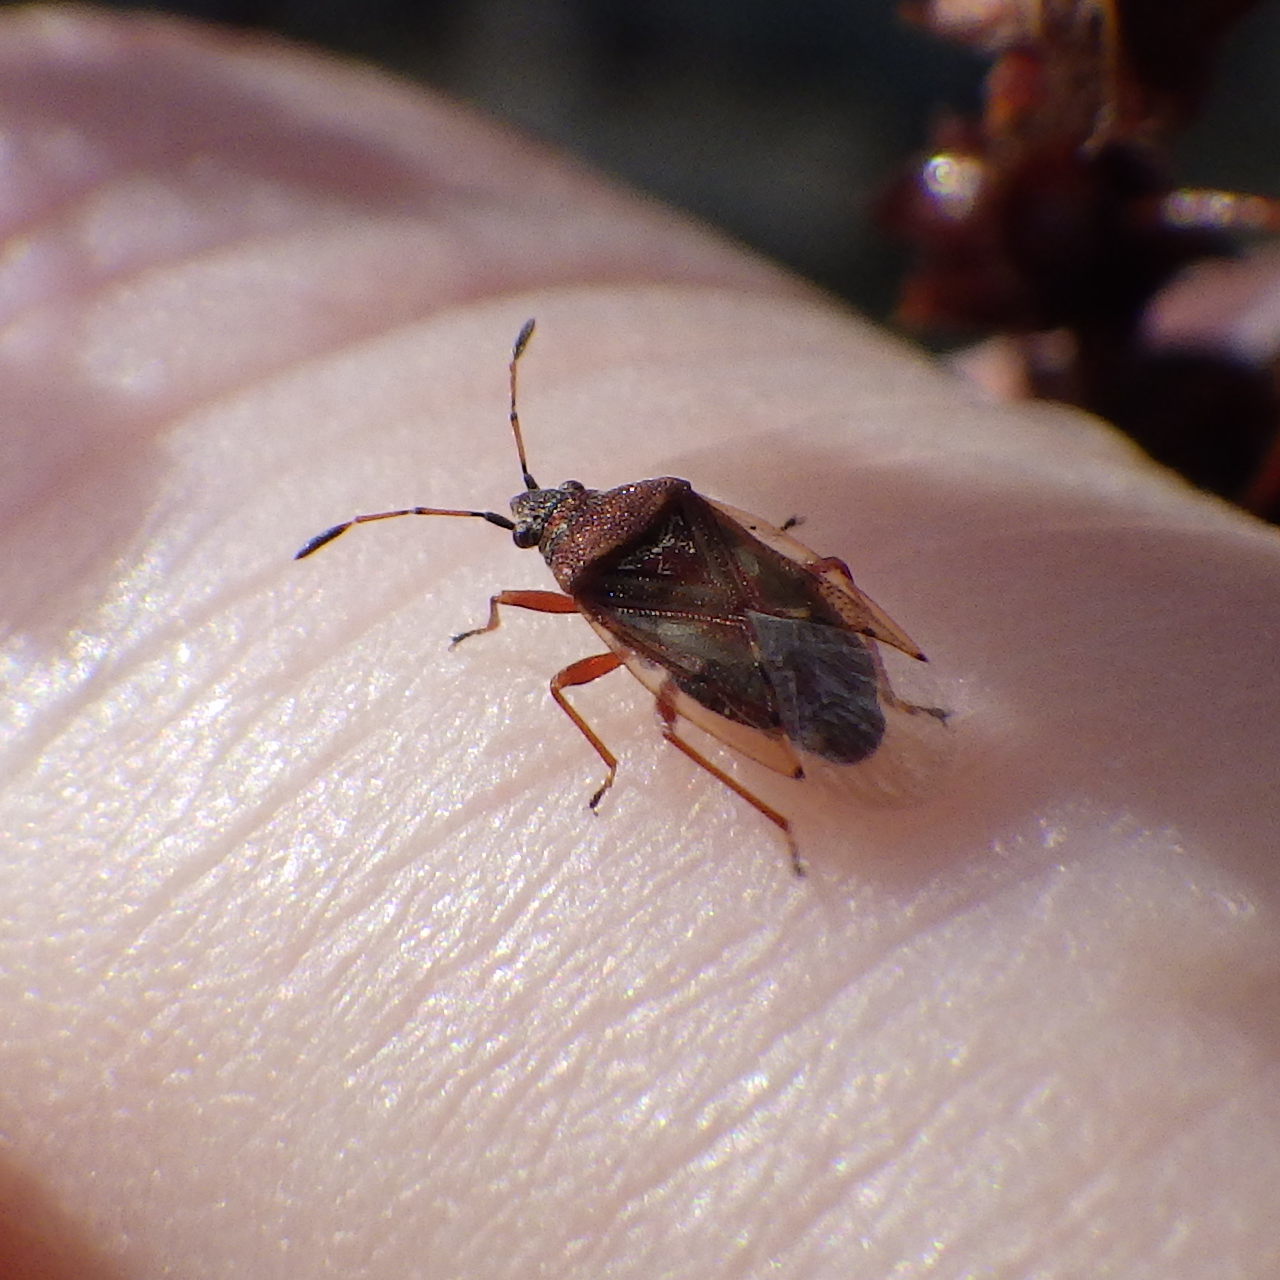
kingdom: Animalia
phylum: Arthropoda
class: Insecta
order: Hemiptera
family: Lygaeidae
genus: Kleidocerys
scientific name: Kleidocerys resedae
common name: Birch catkin bug
